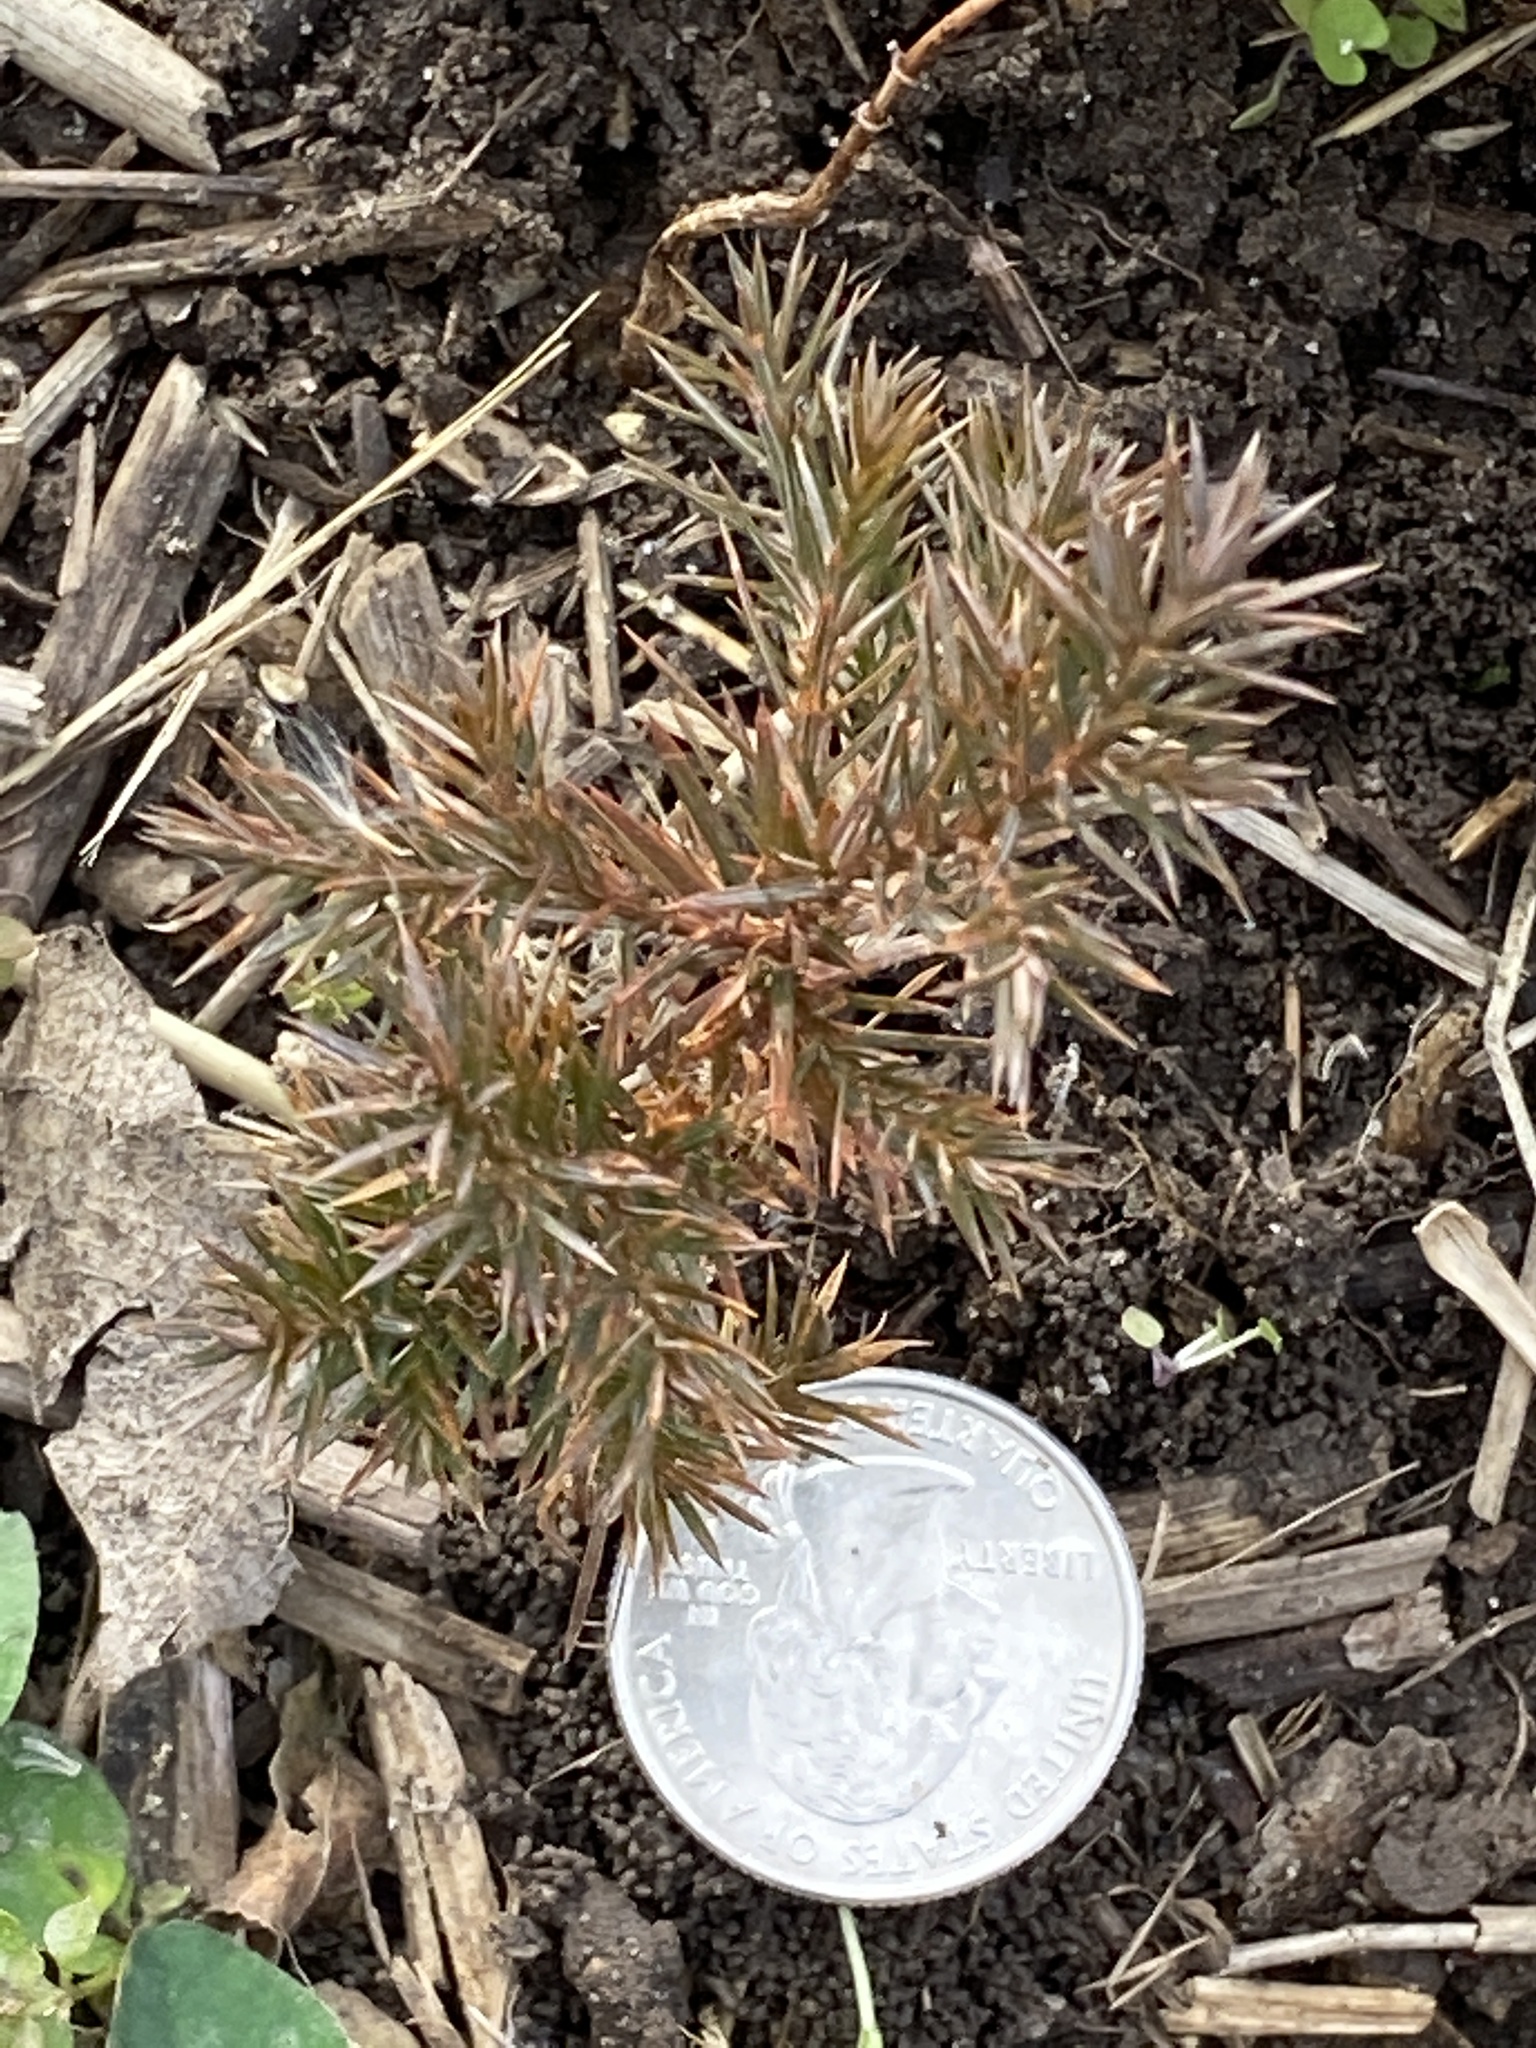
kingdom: Plantae
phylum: Tracheophyta
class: Pinopsida
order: Pinales
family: Cupressaceae
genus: Juniperus
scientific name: Juniperus virginiana
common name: Red juniper
